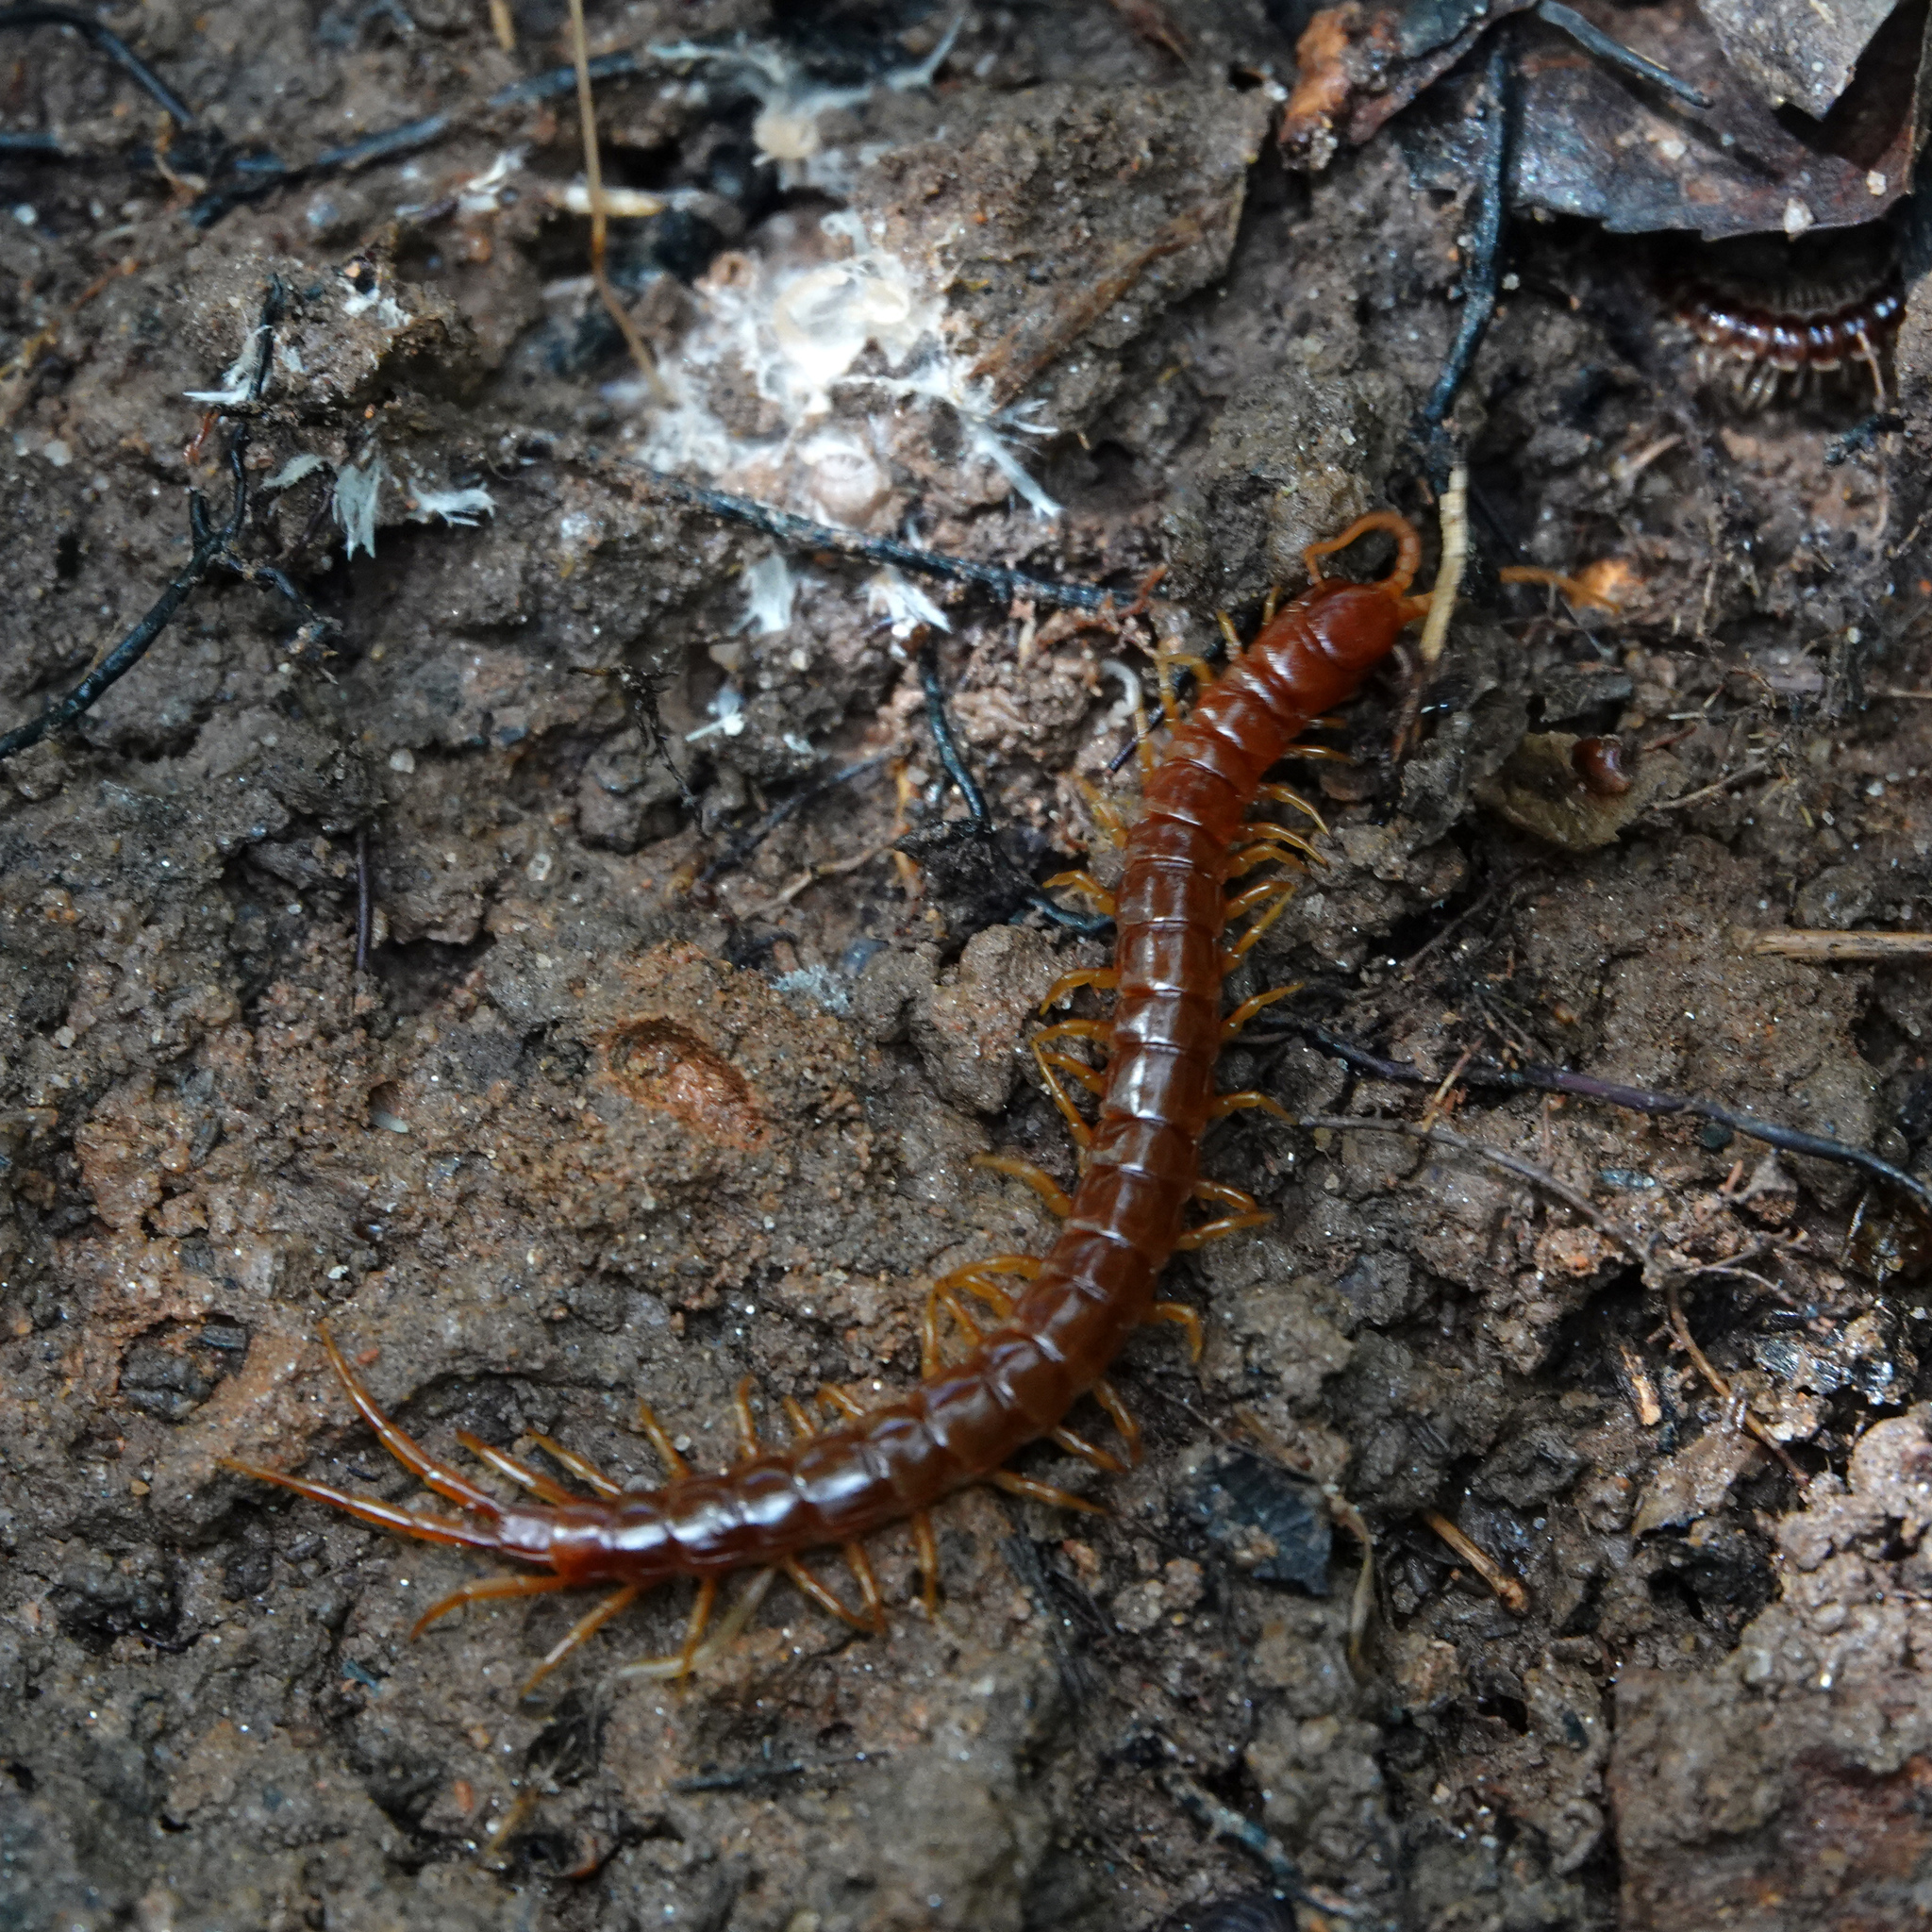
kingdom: Animalia
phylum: Arthropoda
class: Chilopoda
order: Scolopendromorpha
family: Scolopocryptopidae
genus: Scolopocryptops
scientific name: Scolopocryptops sexspinosus
